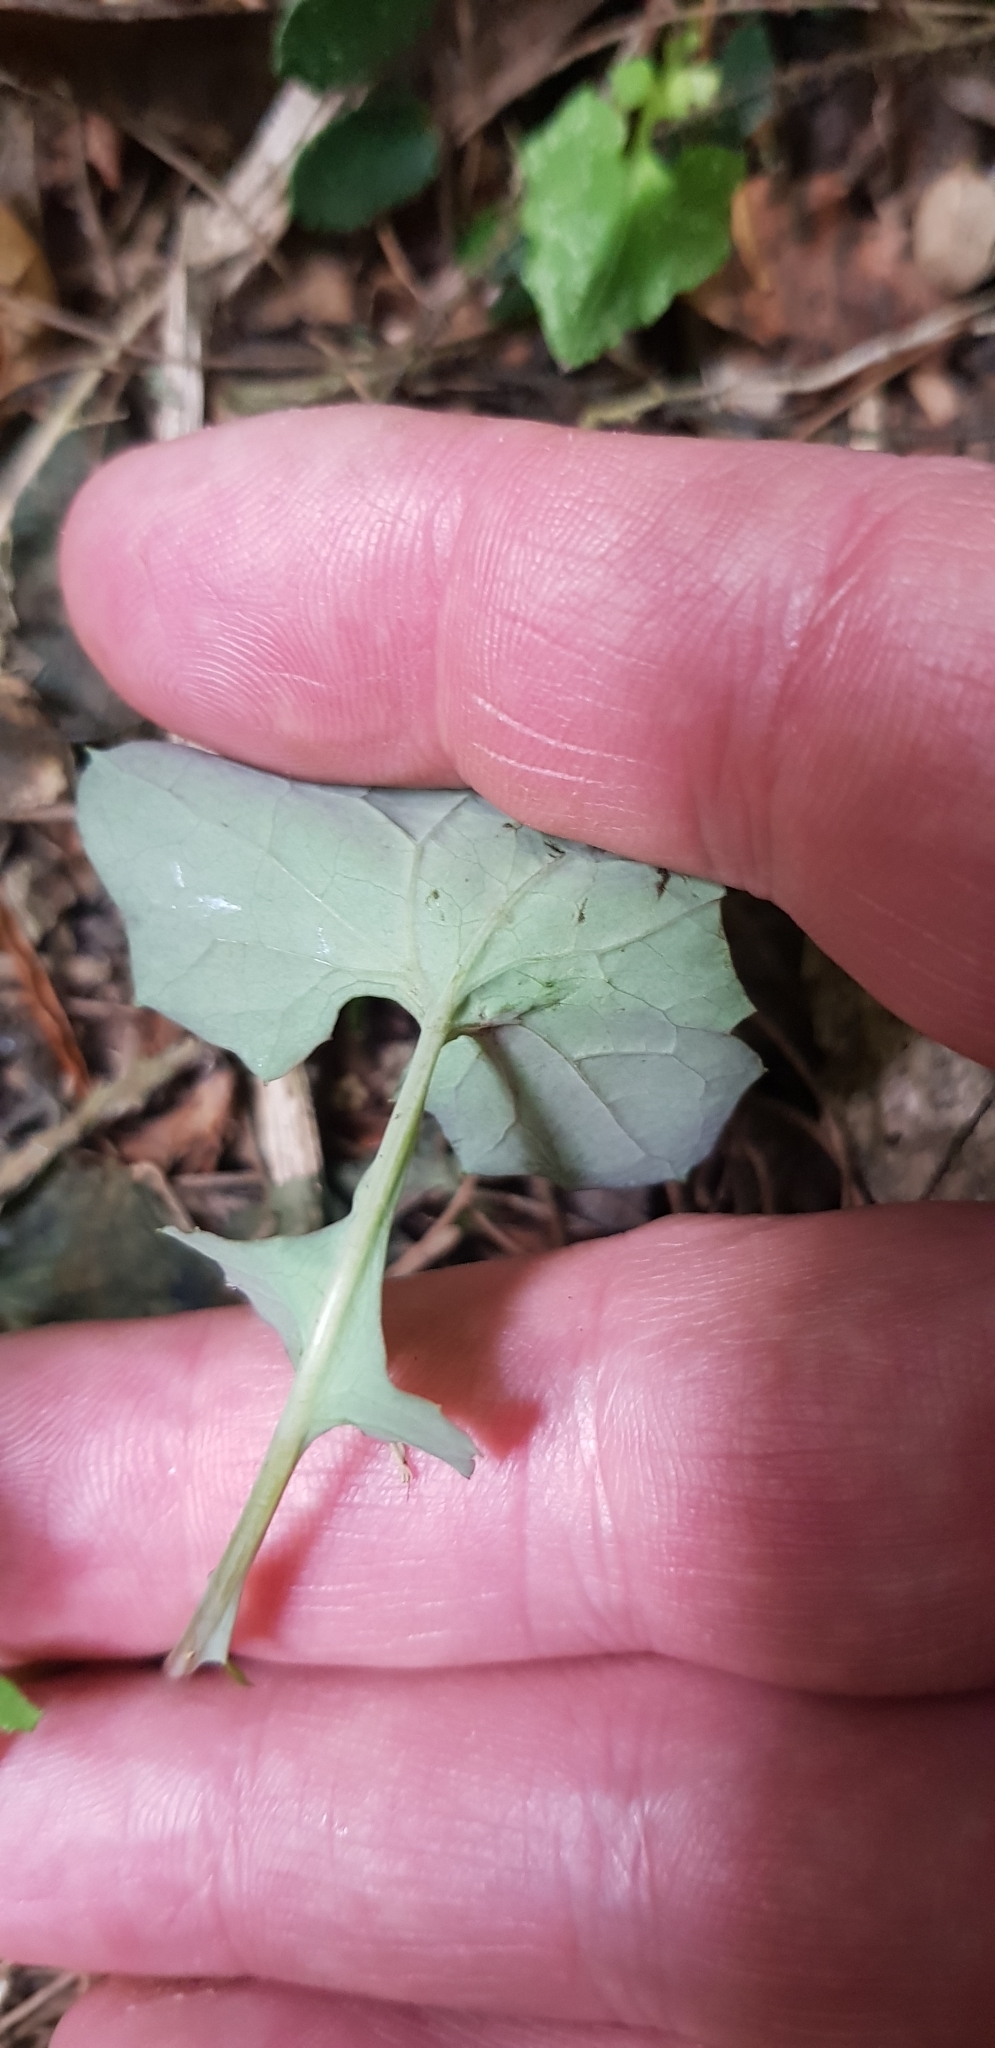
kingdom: Plantae
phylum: Tracheophyta
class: Magnoliopsida
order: Asterales
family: Asteraceae
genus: Mycelis
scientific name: Mycelis muralis
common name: Wall lettuce
